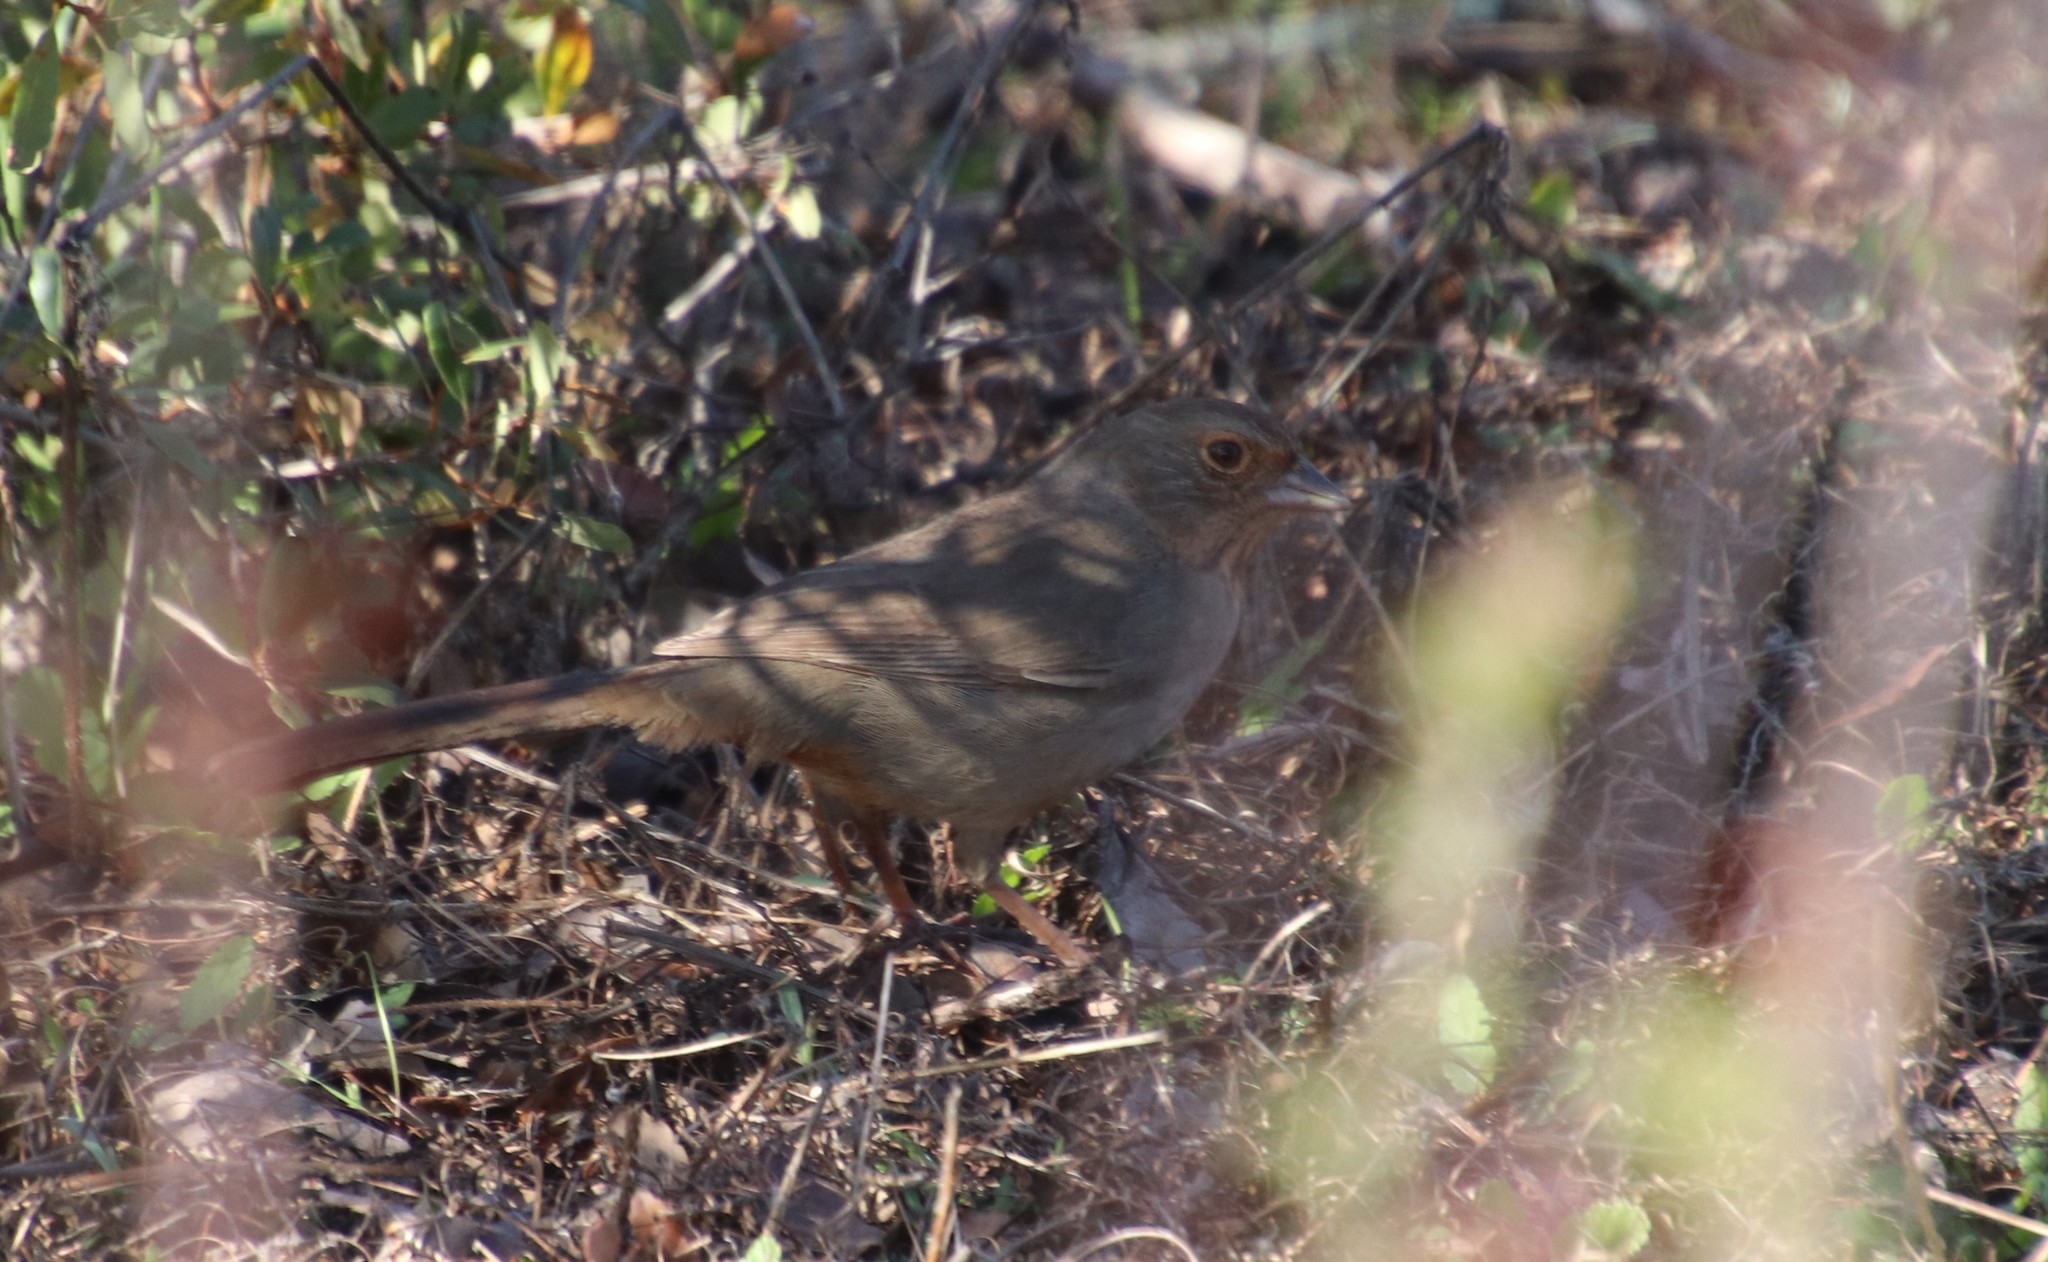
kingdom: Animalia
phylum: Chordata
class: Aves
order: Passeriformes
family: Passerellidae
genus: Melozone
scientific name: Melozone crissalis
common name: California towhee
